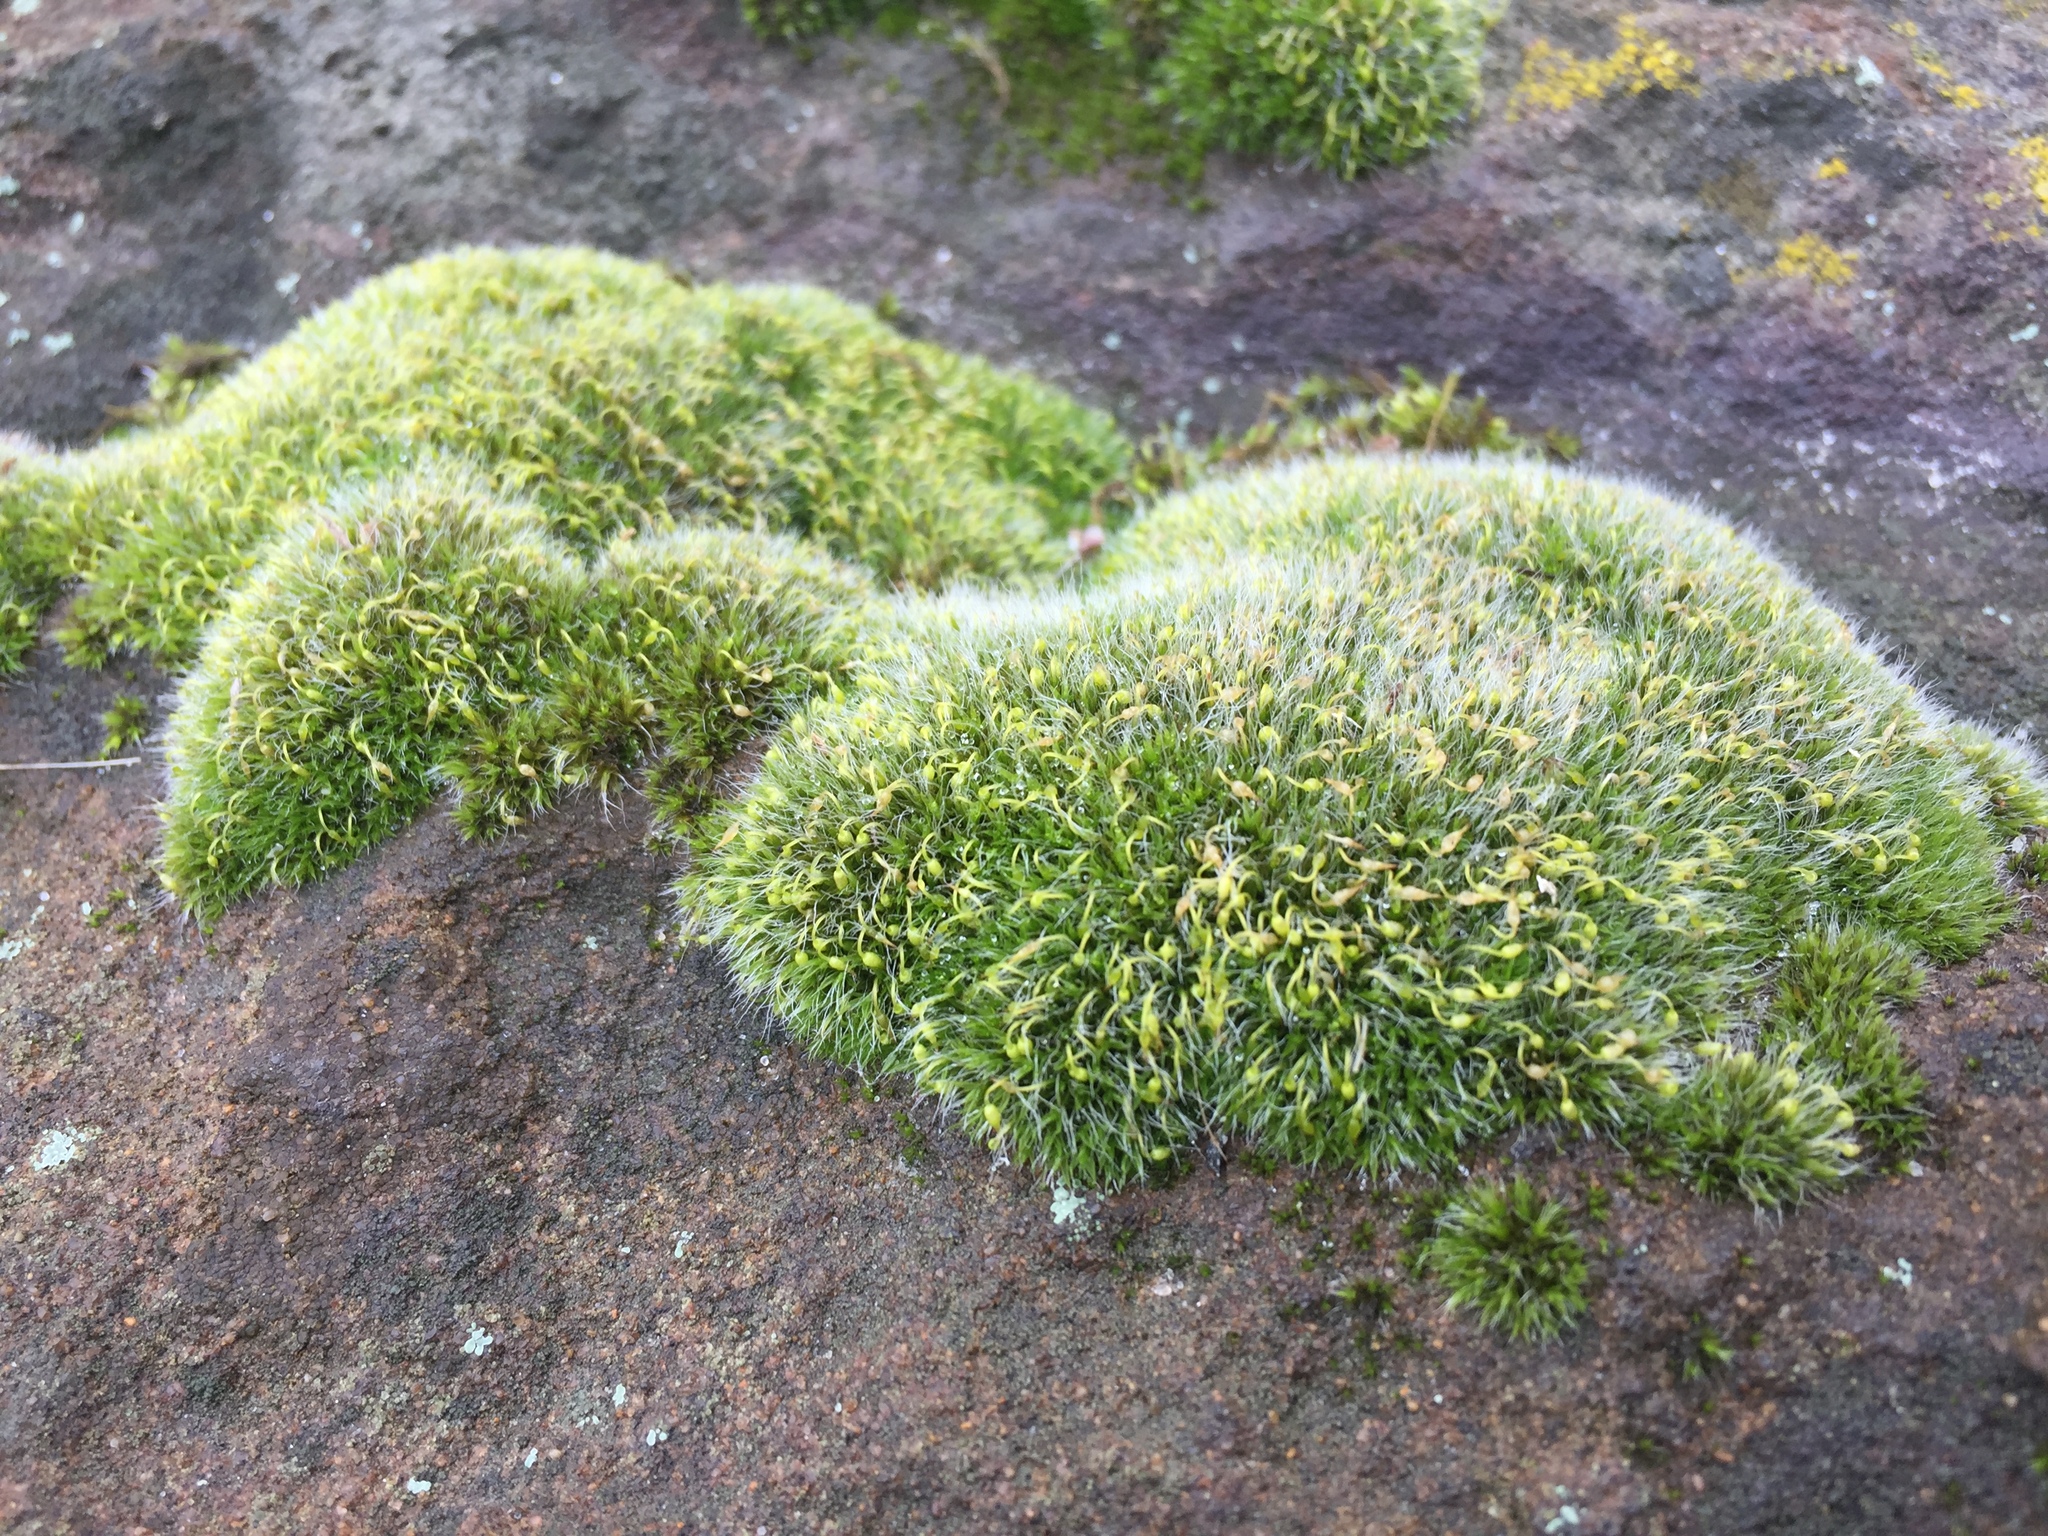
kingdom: Plantae
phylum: Bryophyta
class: Bryopsida
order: Grimmiales
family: Grimmiaceae
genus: Grimmia
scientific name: Grimmia pulvinata
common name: Grey-cushioned grimmia
